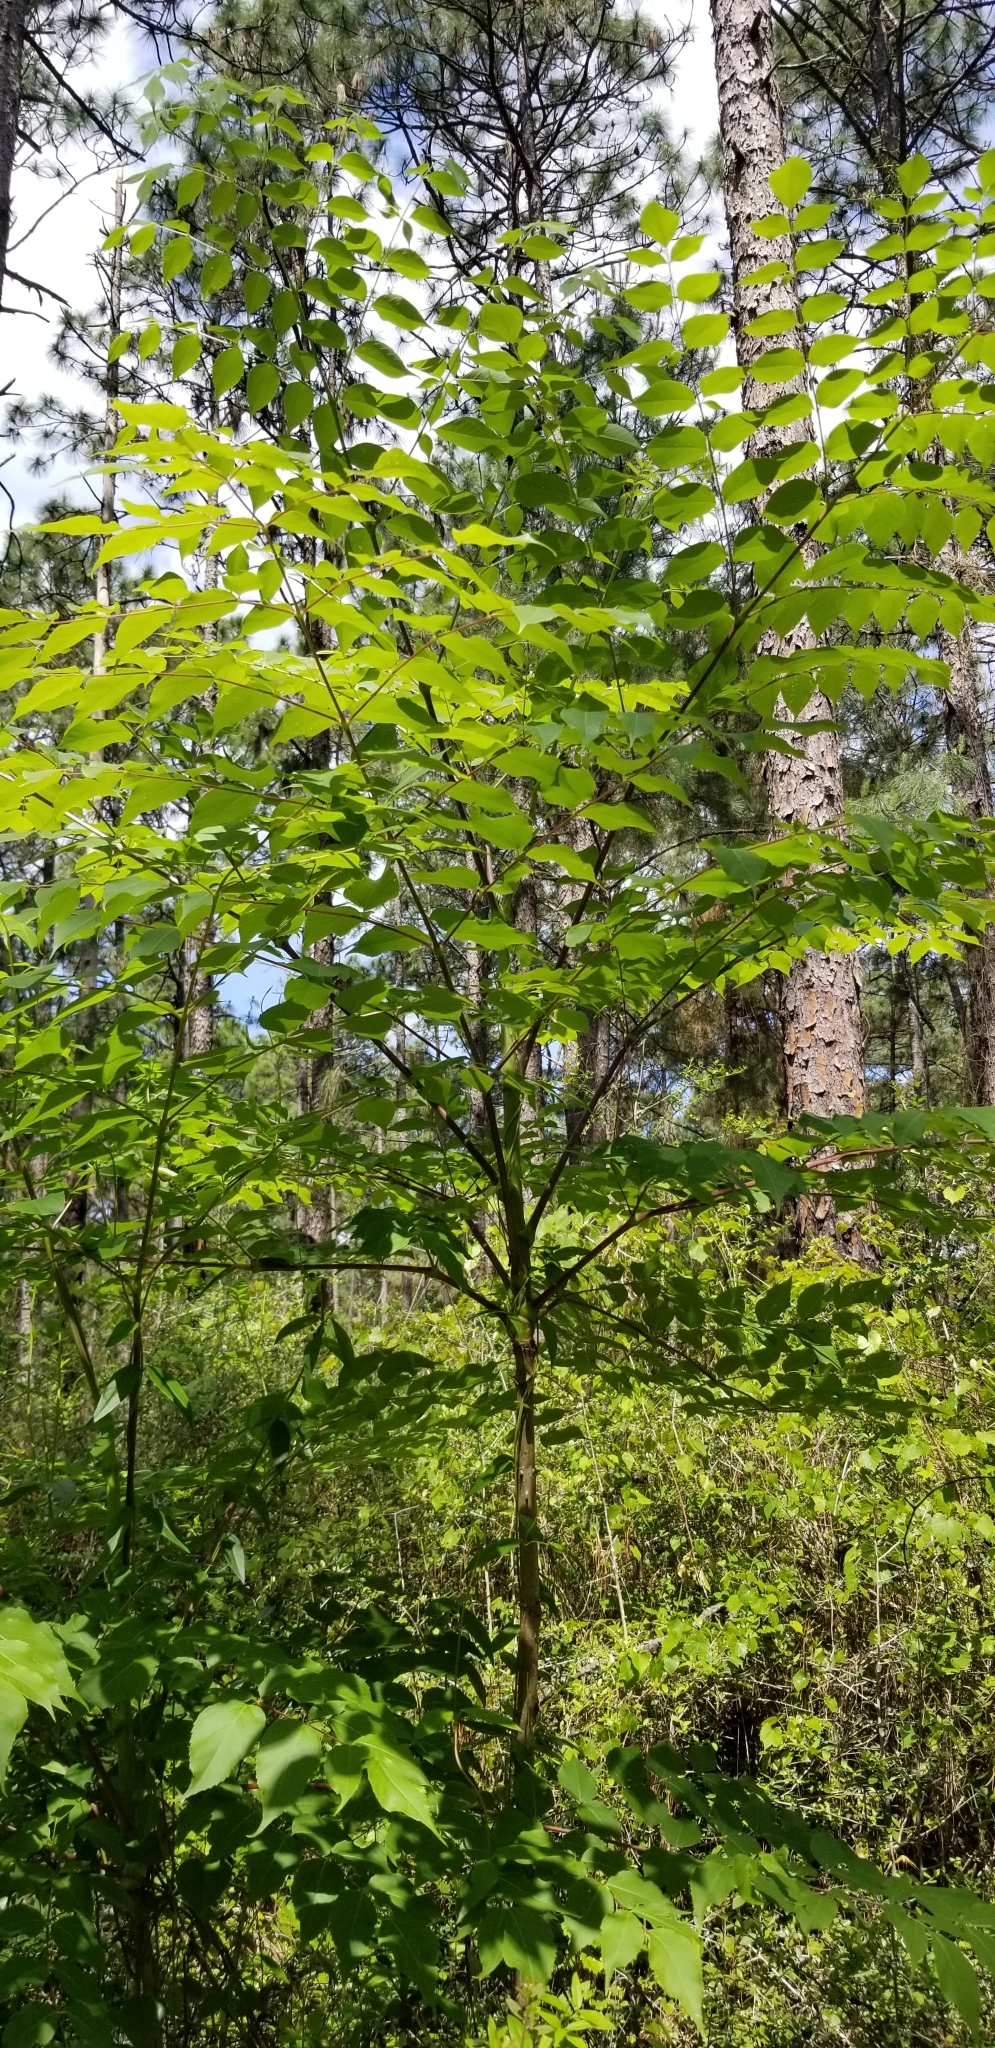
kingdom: Plantae
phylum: Tracheophyta
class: Magnoliopsida
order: Apiales
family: Araliaceae
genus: Aralia
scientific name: Aralia spinosa
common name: Hercules'-club
